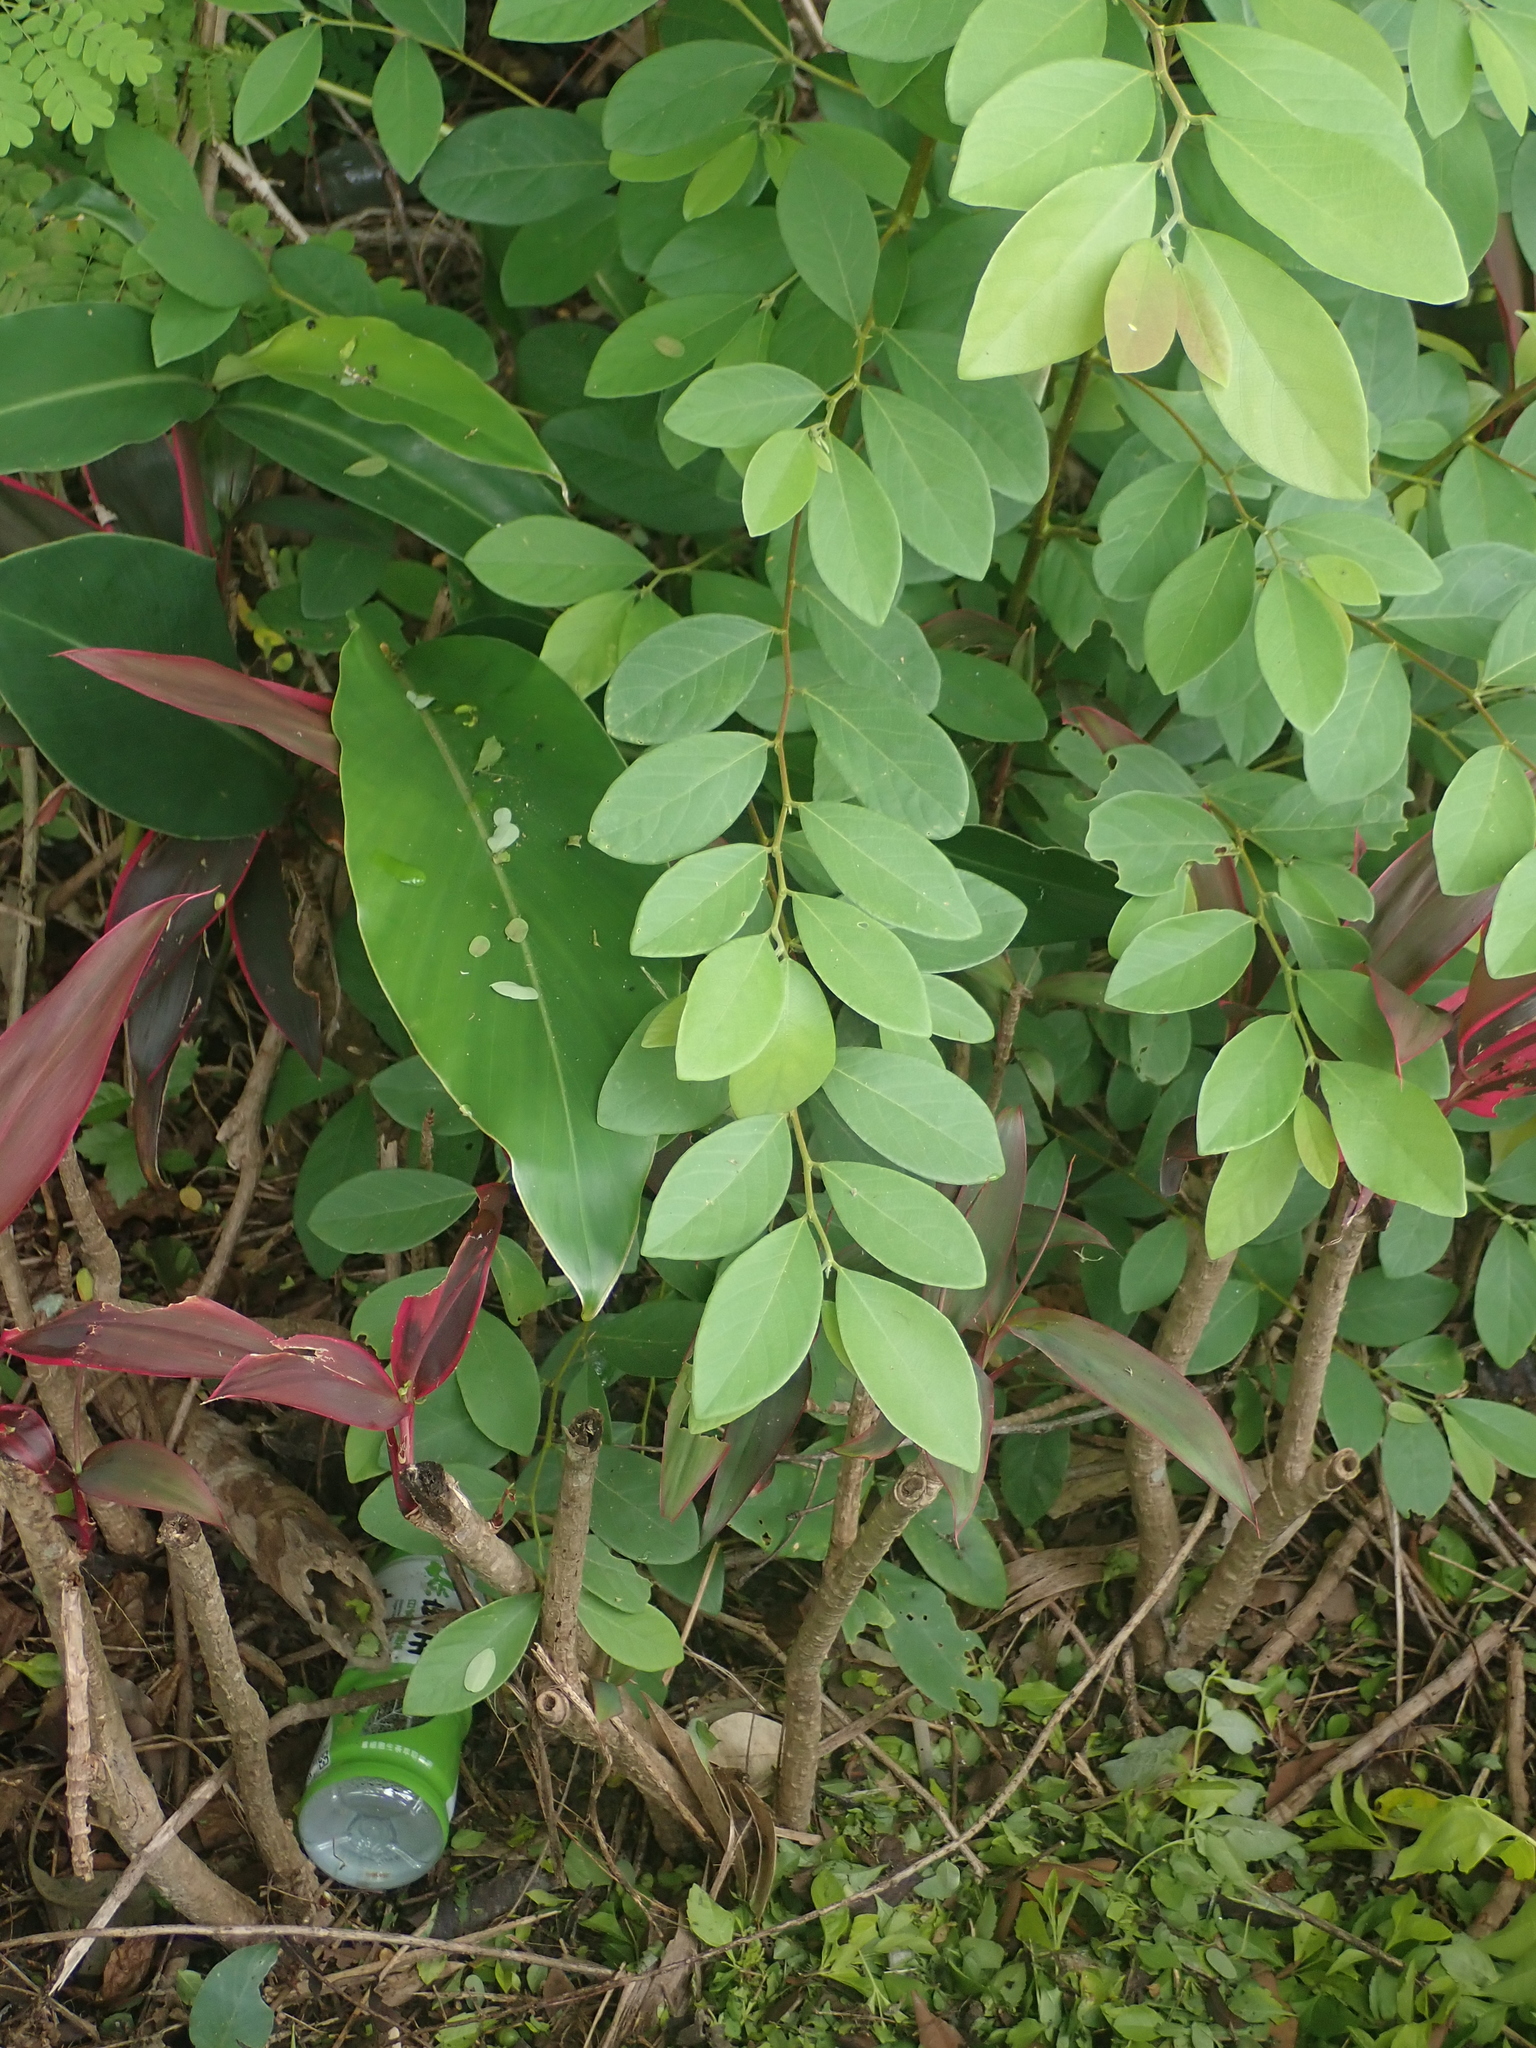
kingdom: Plantae
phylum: Tracheophyta
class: Magnoliopsida
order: Malpighiales
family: Phyllanthaceae
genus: Bridelia
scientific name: Bridelia tomentosa
